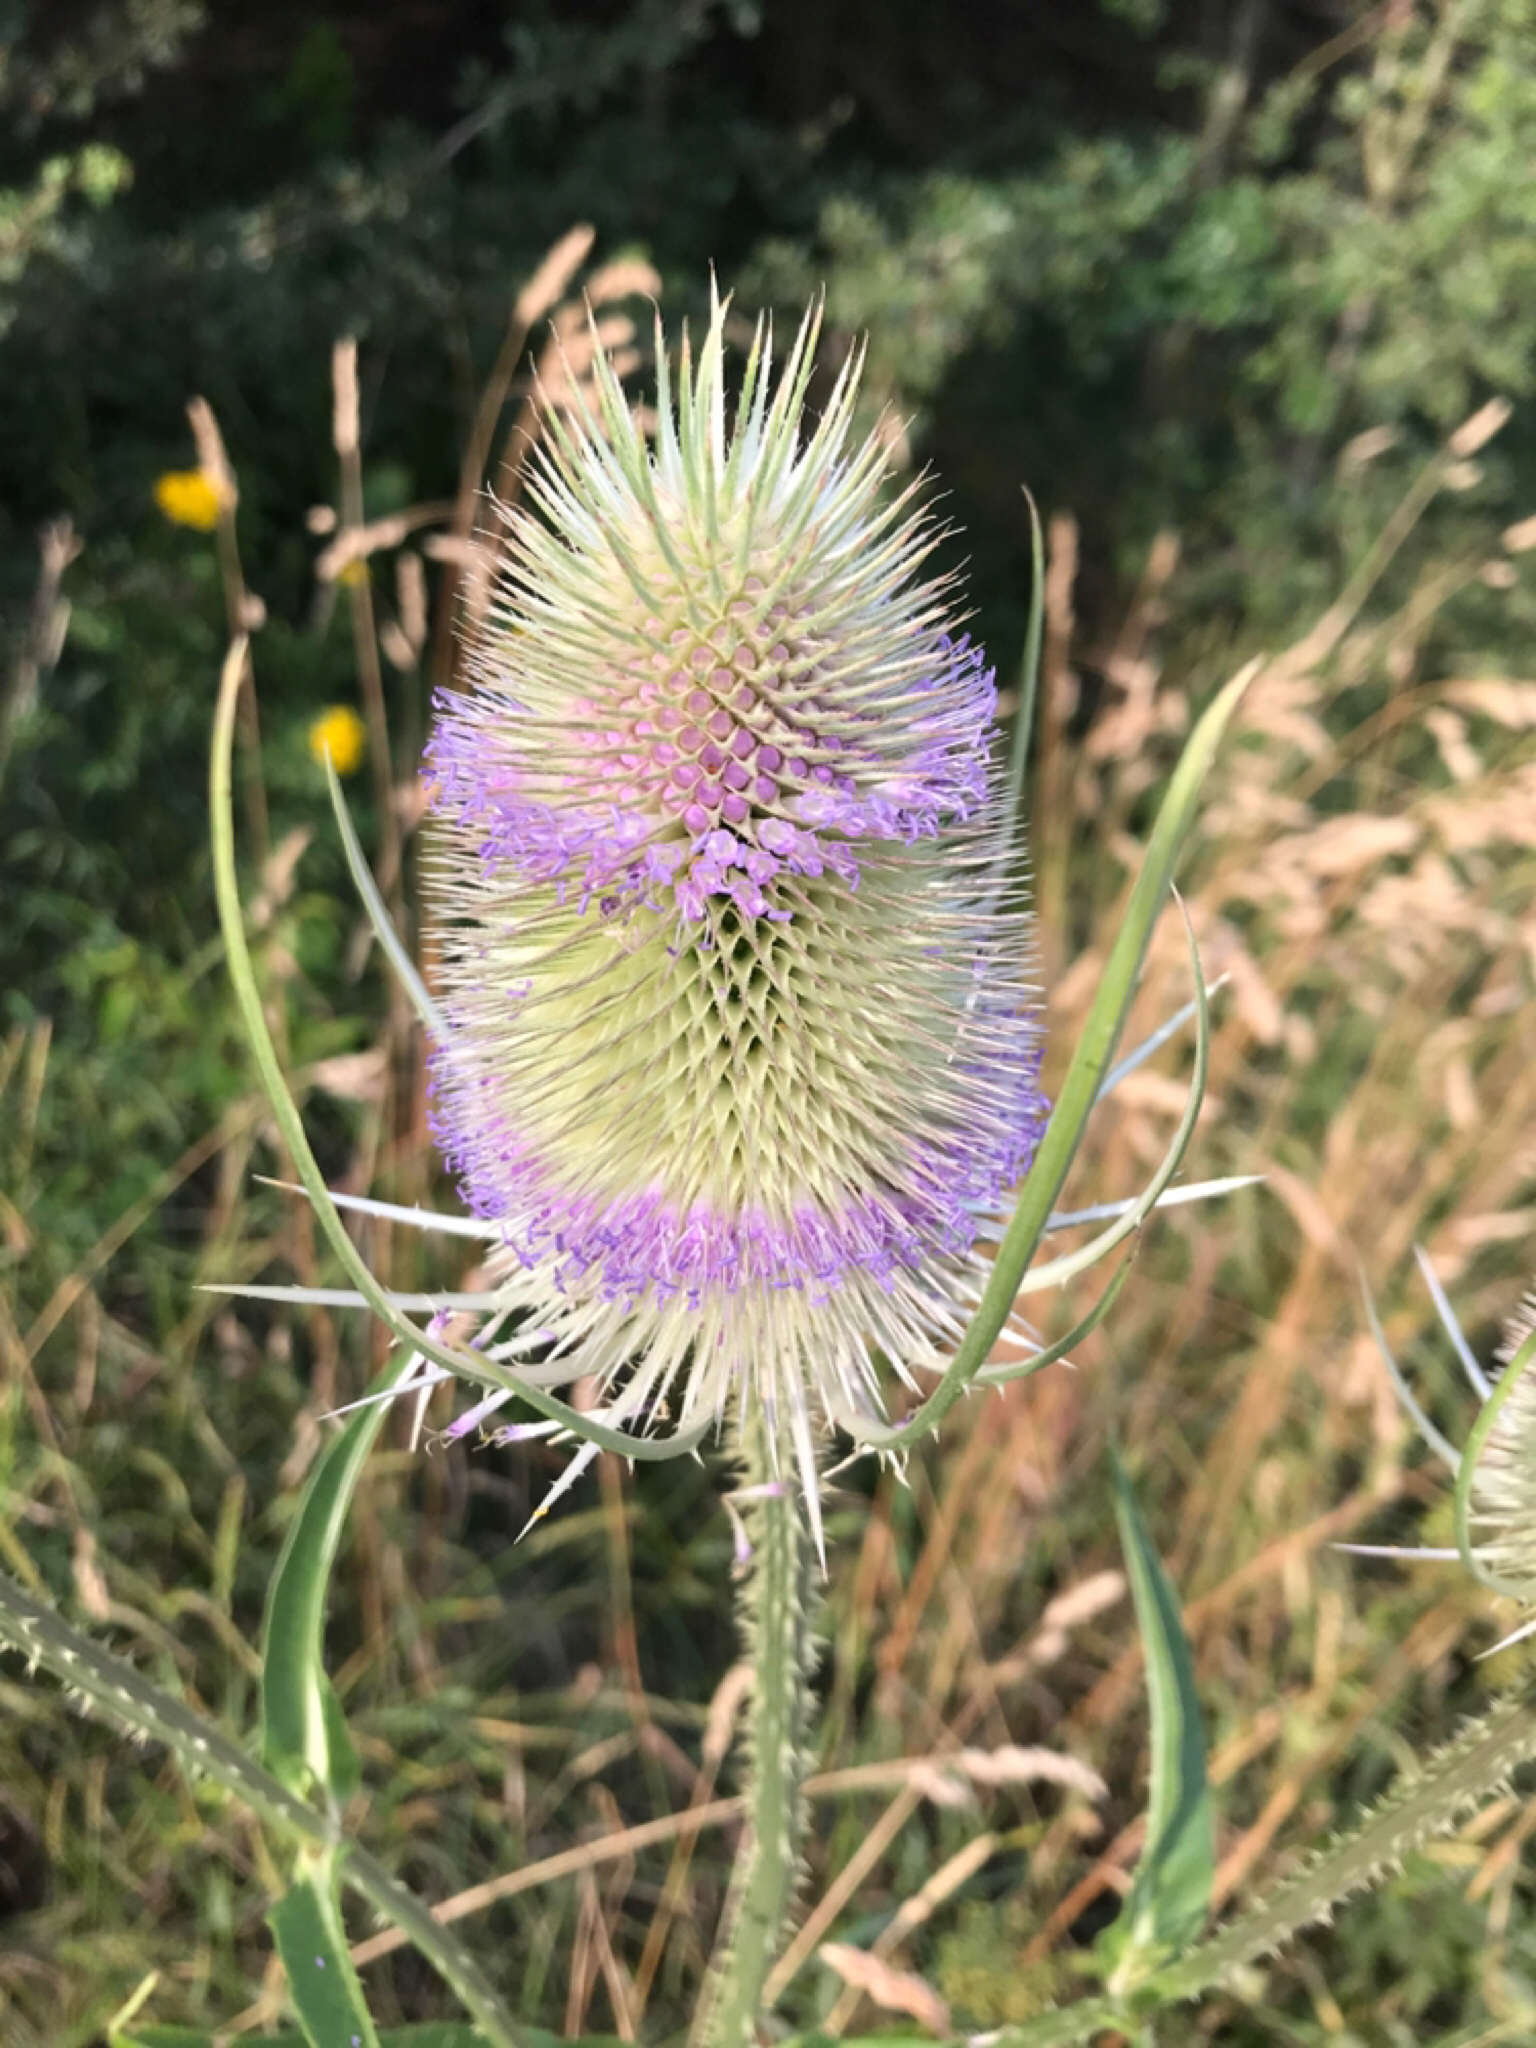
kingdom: Plantae
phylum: Tracheophyta
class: Magnoliopsida
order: Dipsacales
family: Caprifoliaceae
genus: Dipsacus
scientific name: Dipsacus fullonum
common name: Teasel
